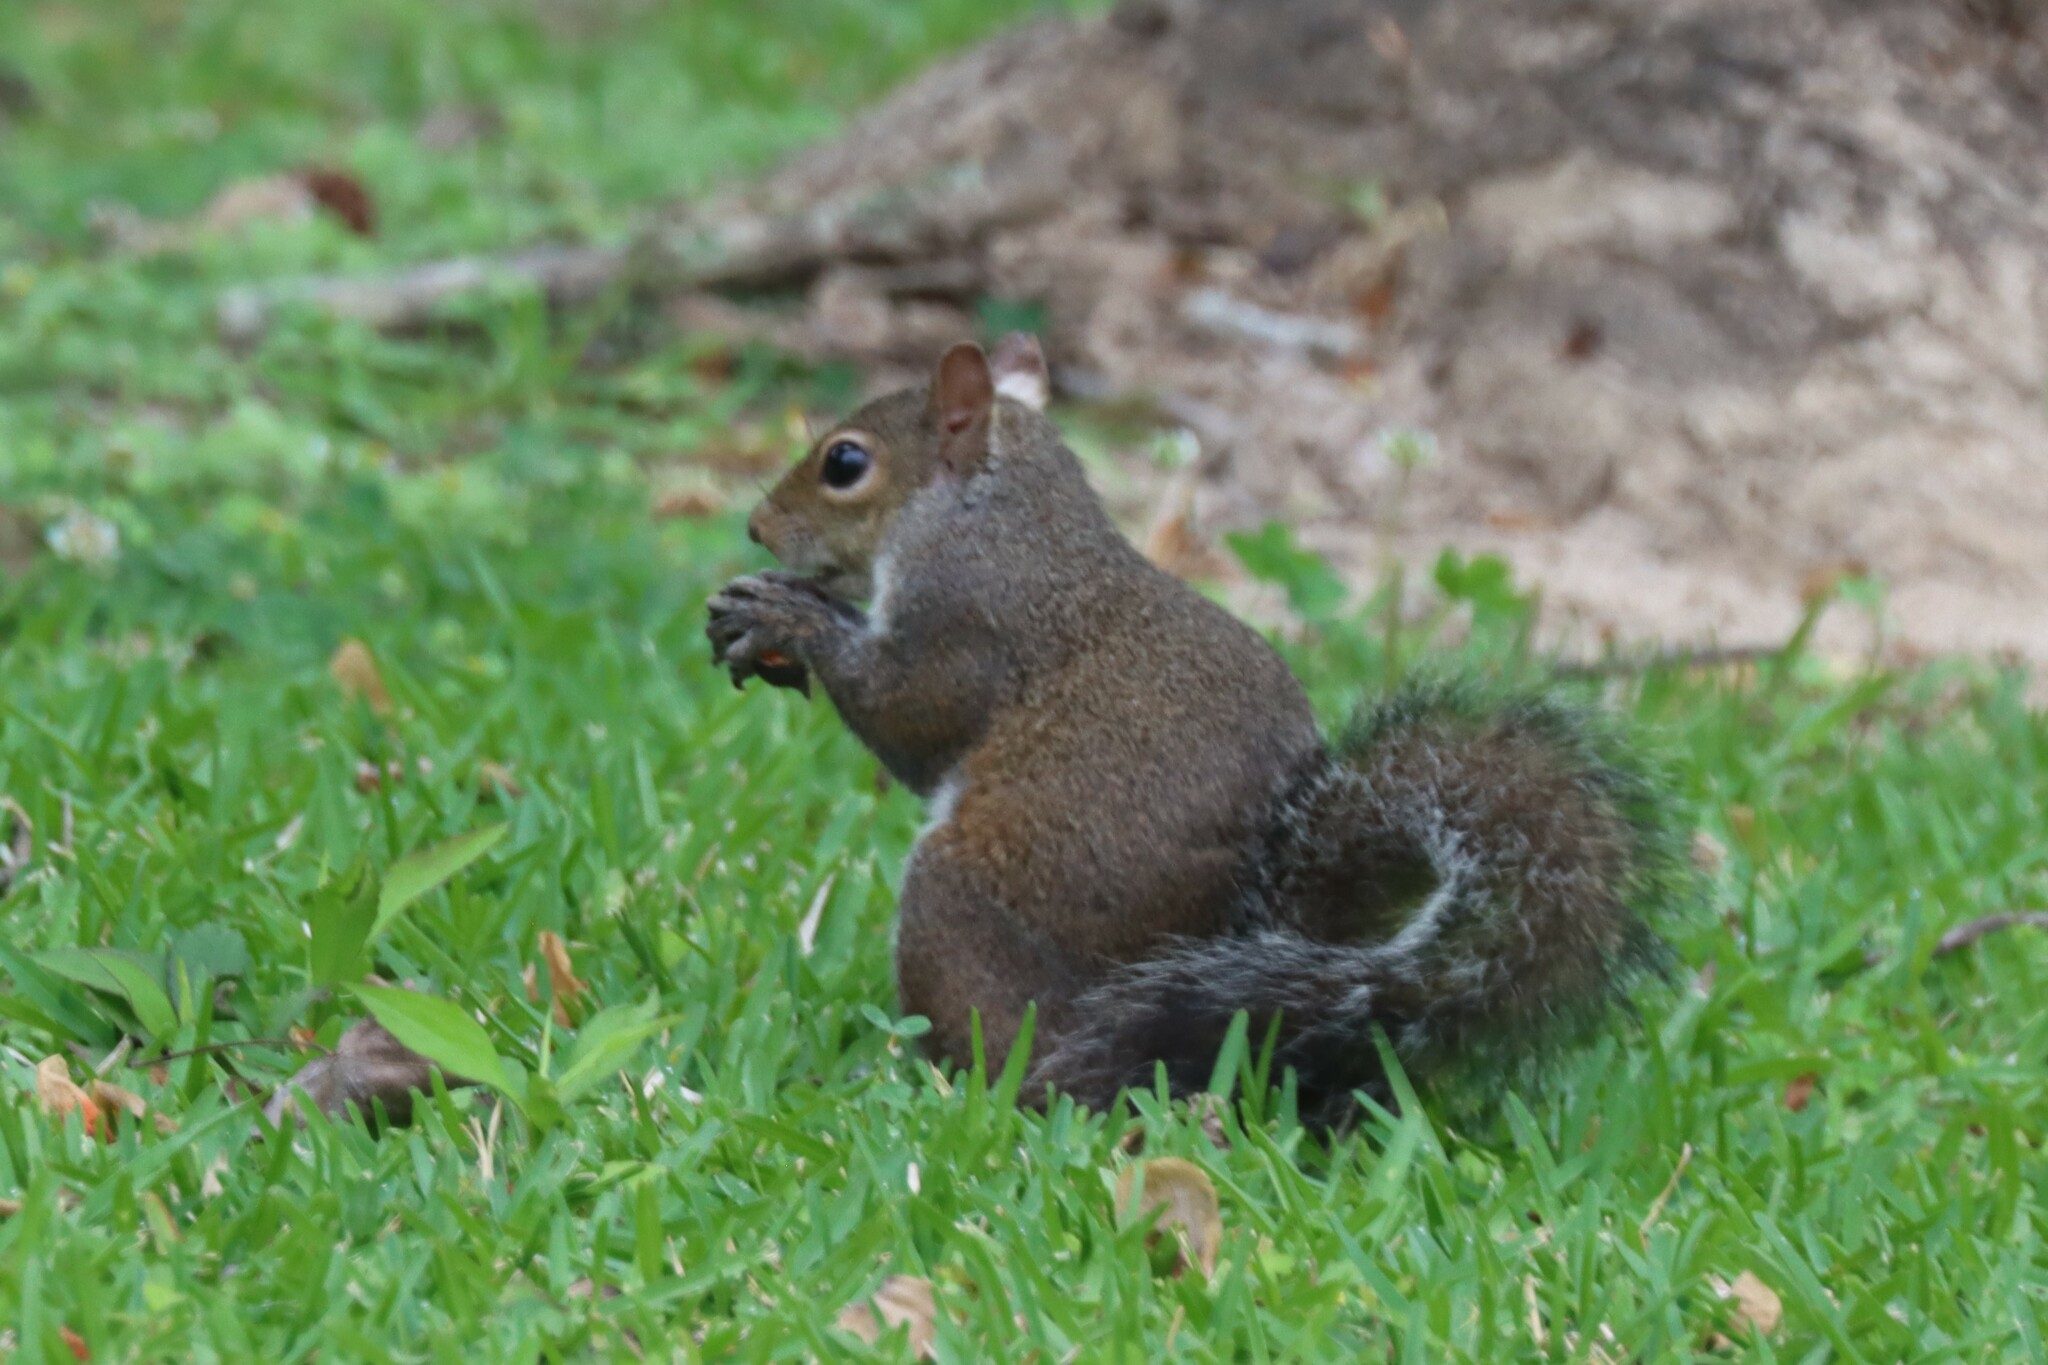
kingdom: Animalia
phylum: Chordata
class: Mammalia
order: Rodentia
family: Sciuridae
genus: Sciurus
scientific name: Sciurus carolinensis
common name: Eastern gray squirrel
